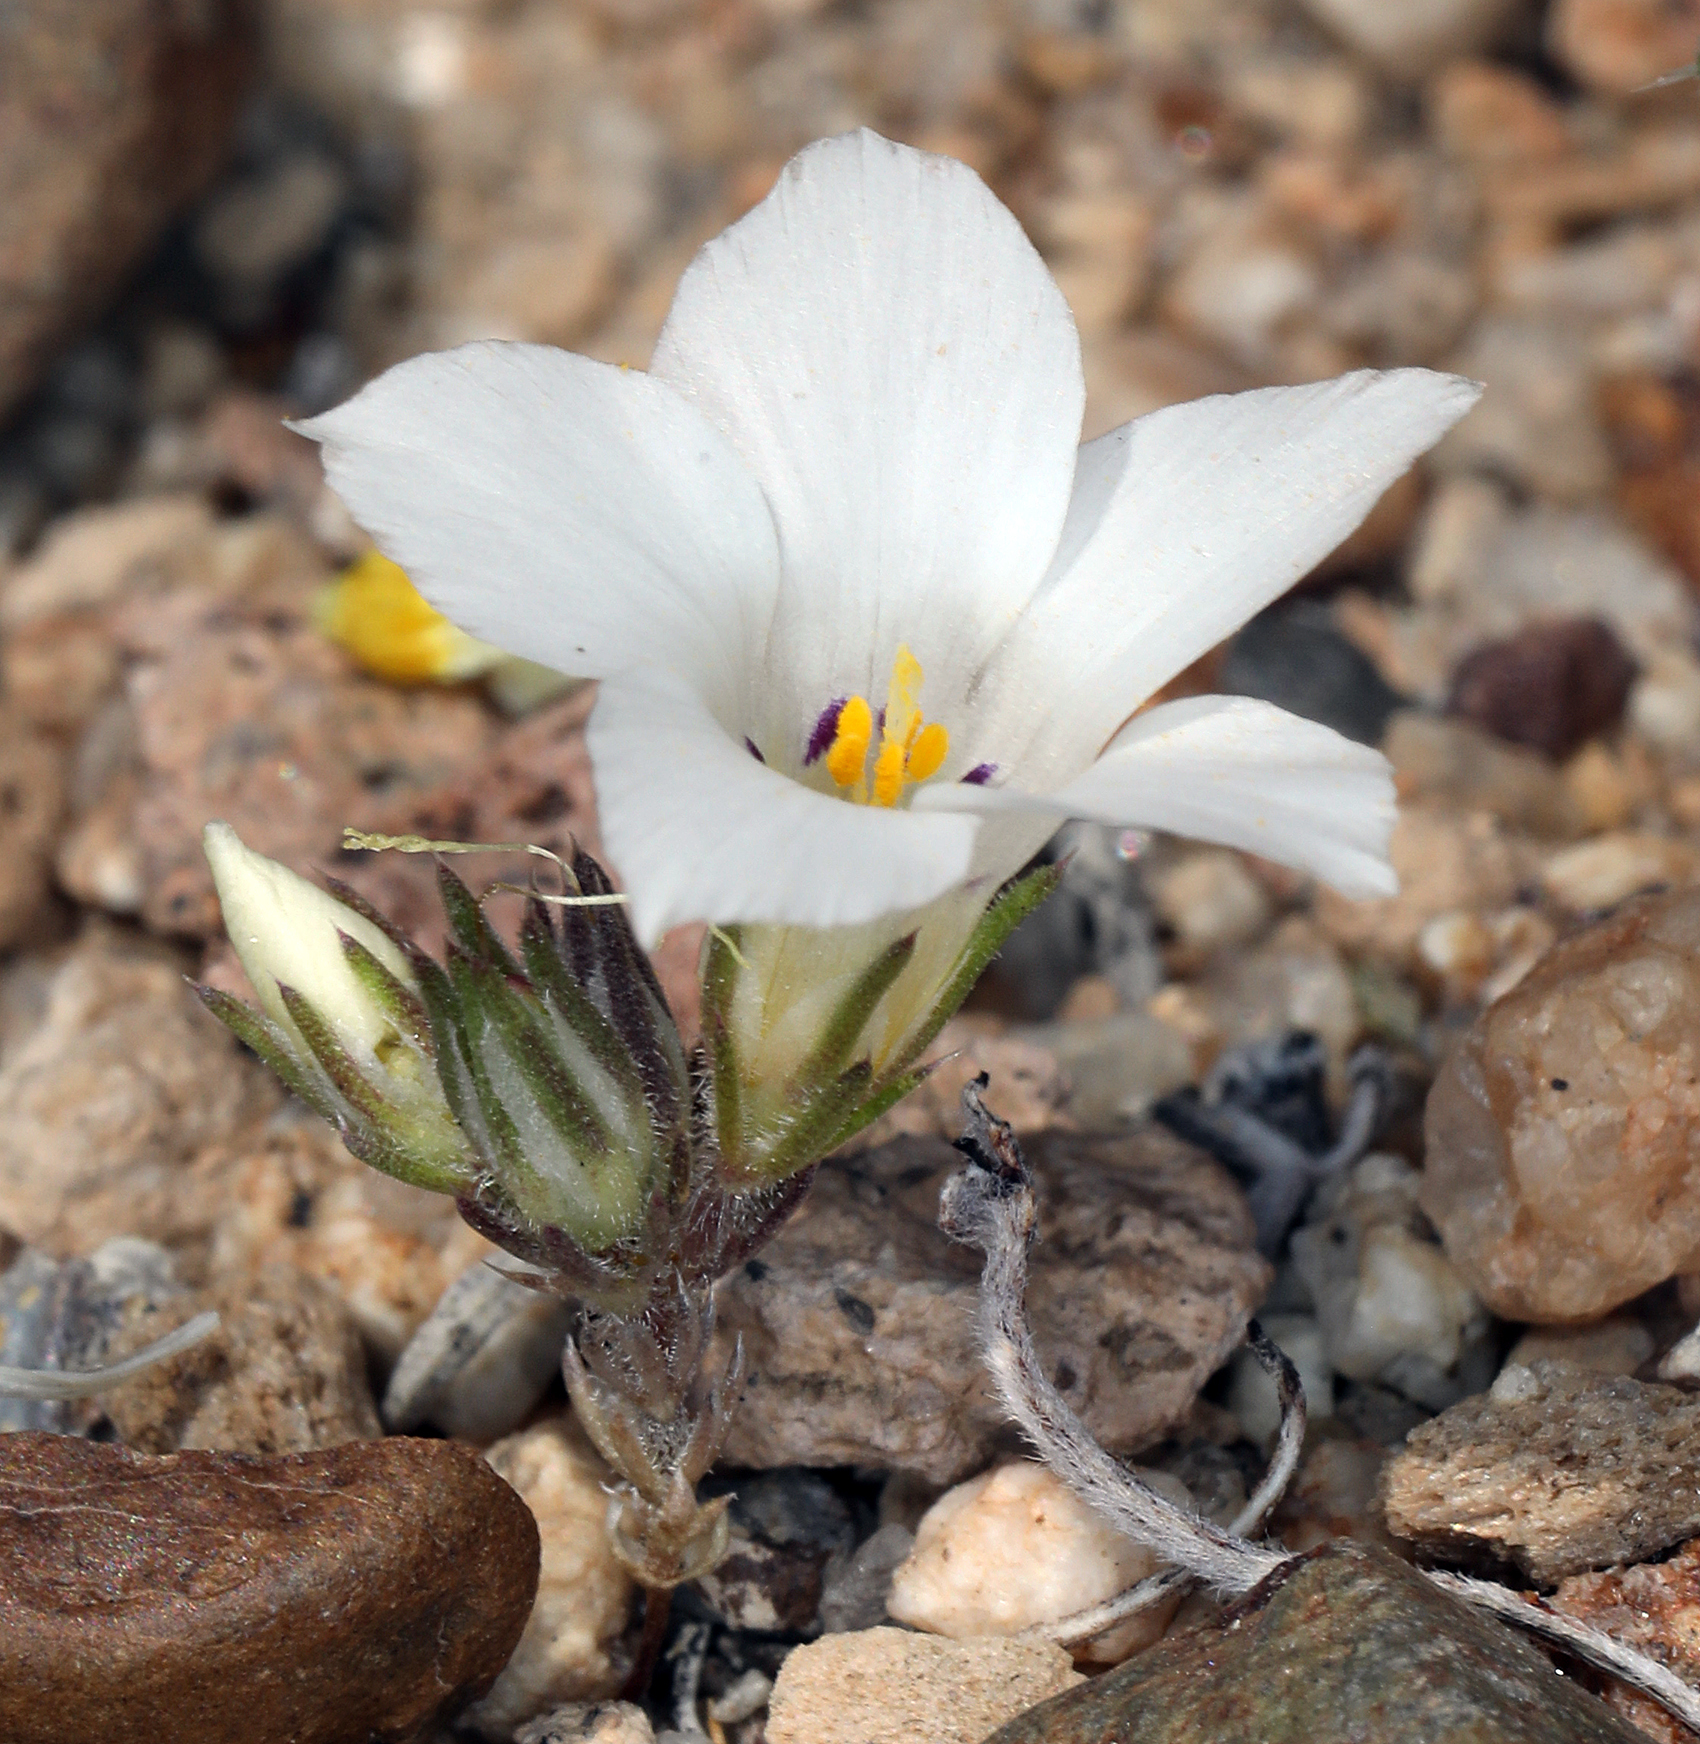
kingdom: Plantae
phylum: Tracheophyta
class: Magnoliopsida
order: Ericales
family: Polemoniaceae
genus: Linanthus
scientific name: Linanthus parryae
